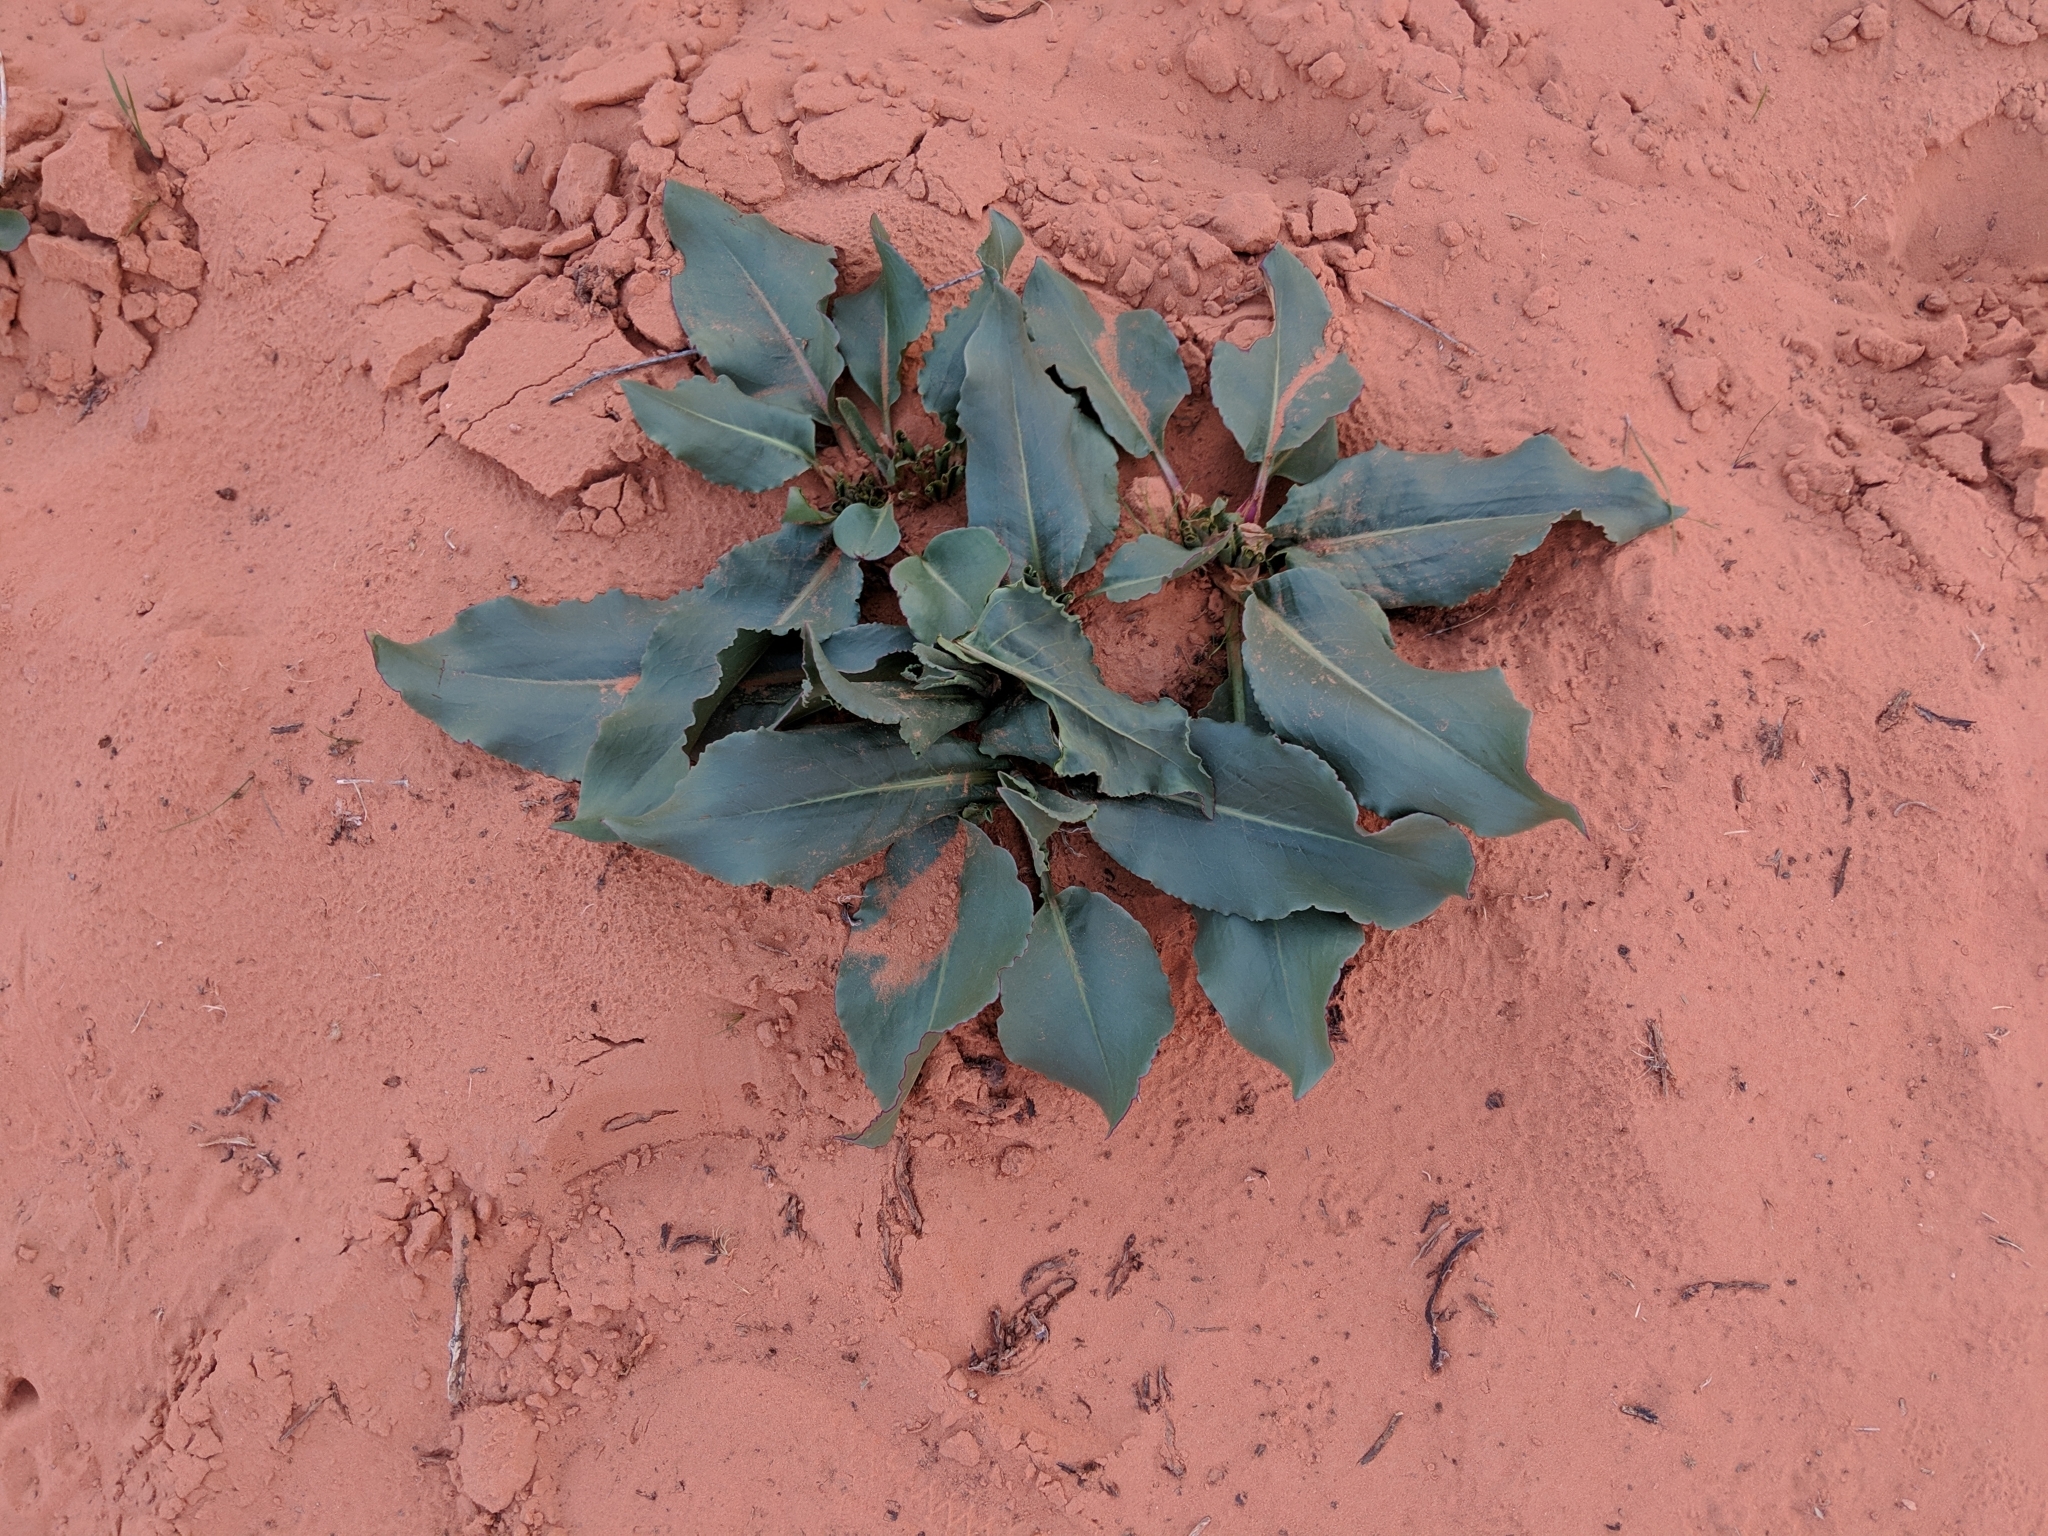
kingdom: Plantae
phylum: Tracheophyta
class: Magnoliopsida
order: Caryophyllales
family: Polygonaceae
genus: Rumex
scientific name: Rumex hymenosepalus
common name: Ganagra
